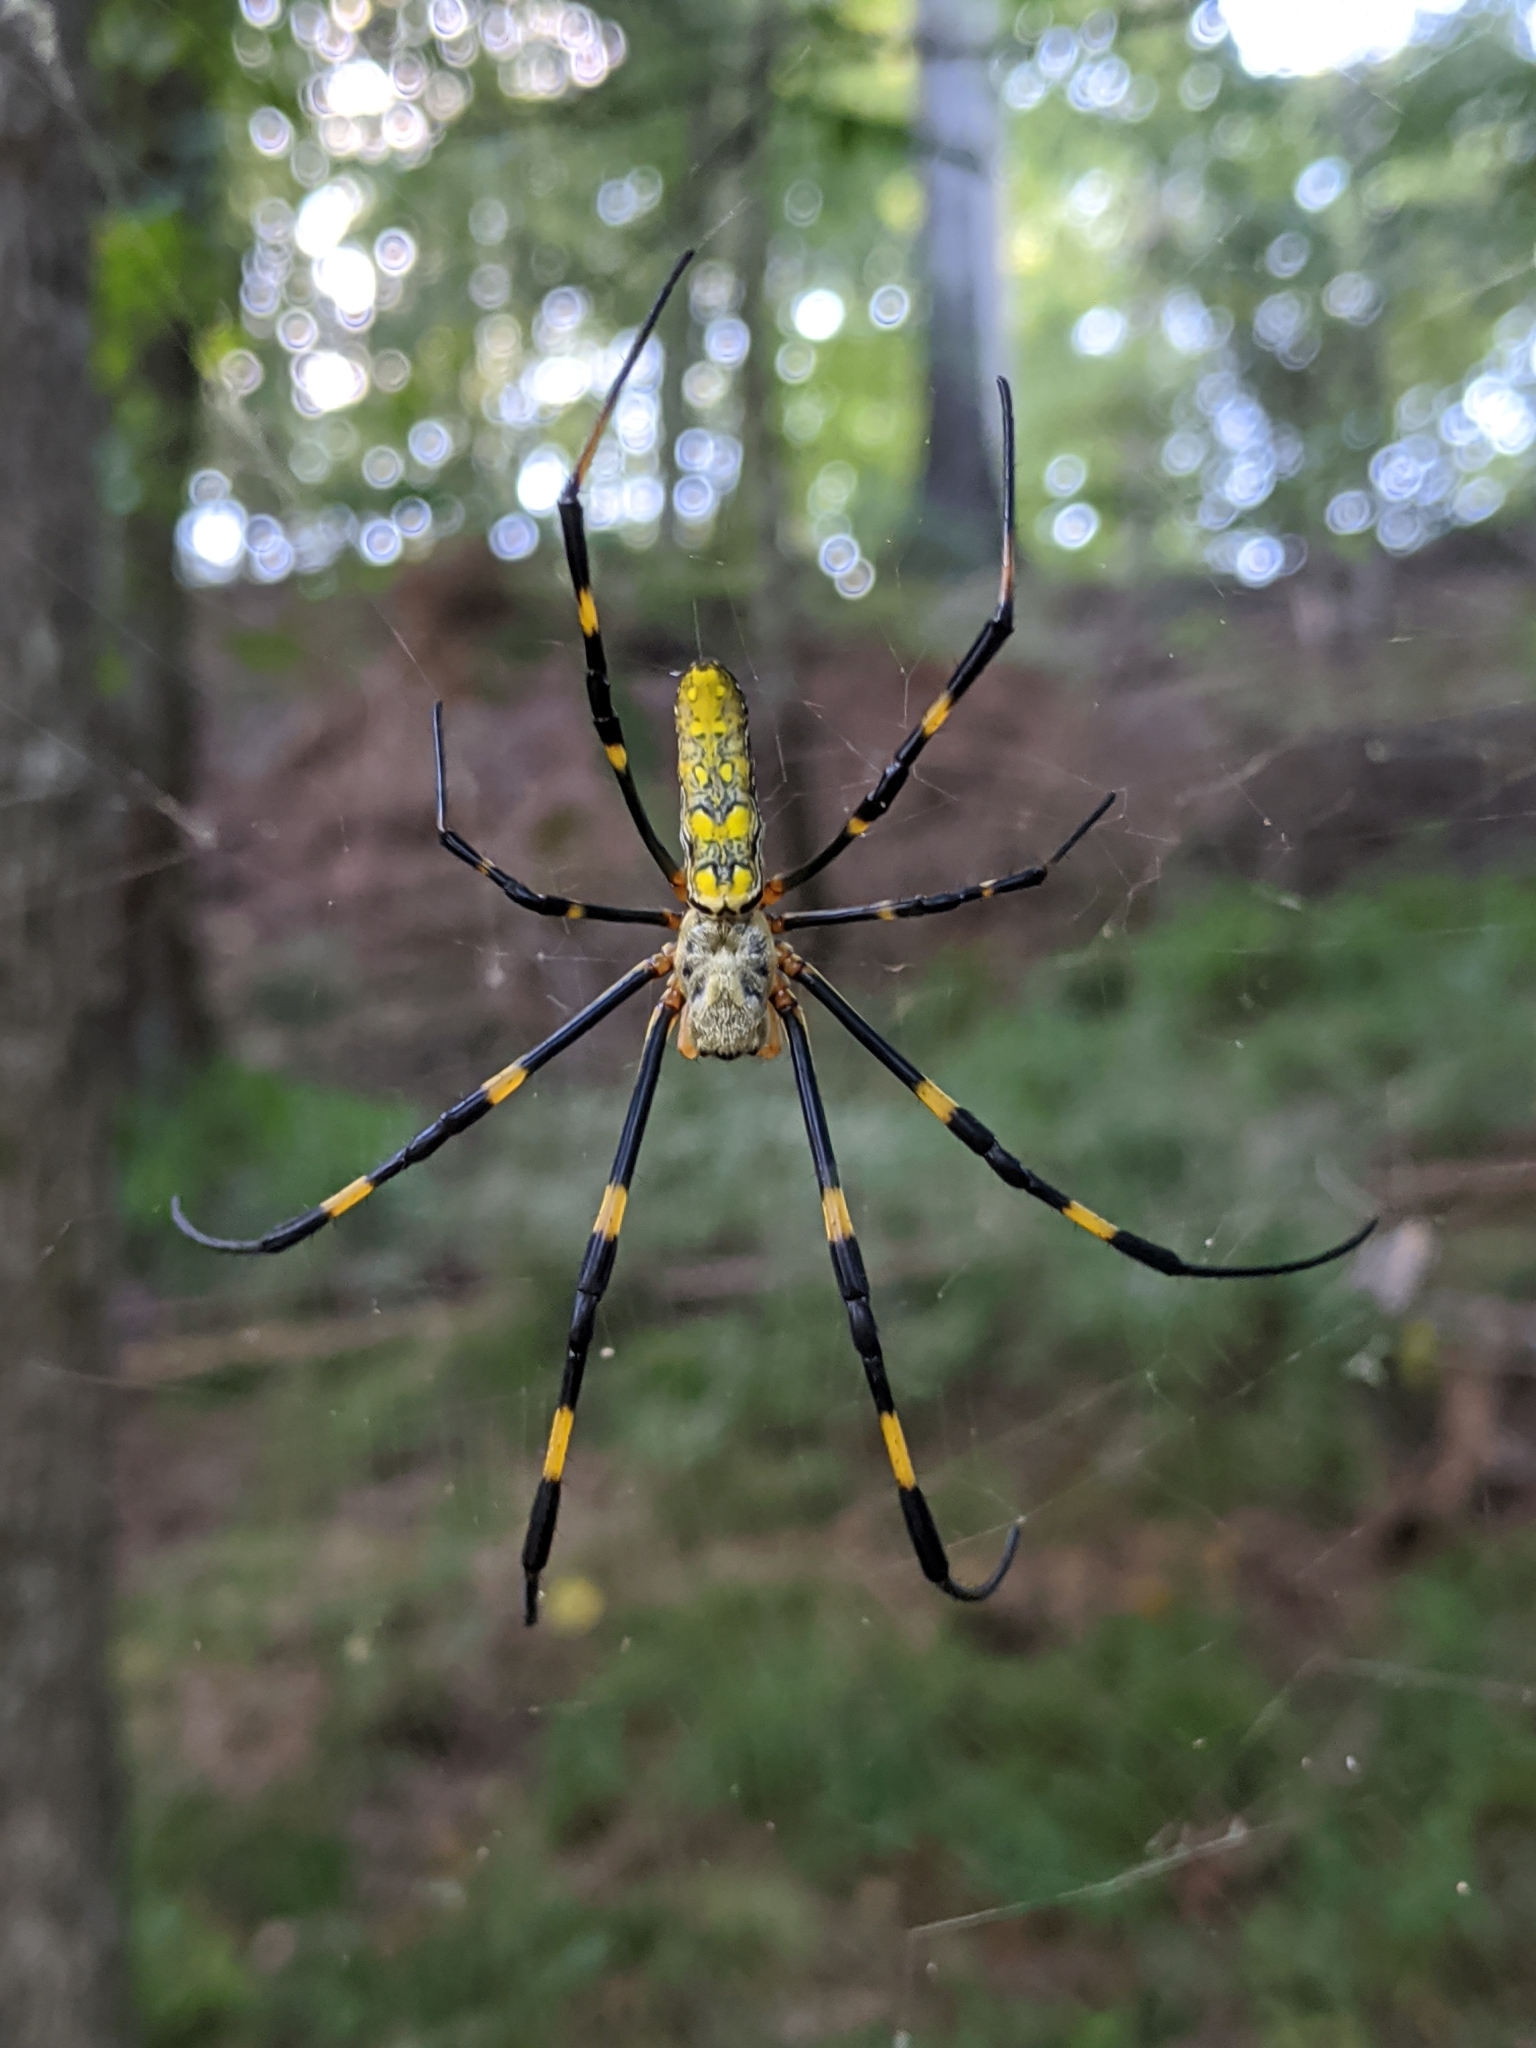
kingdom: Animalia
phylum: Arthropoda
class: Arachnida
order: Araneae
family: Araneidae
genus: Trichonephila
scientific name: Trichonephila clavata
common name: Jorō spider
